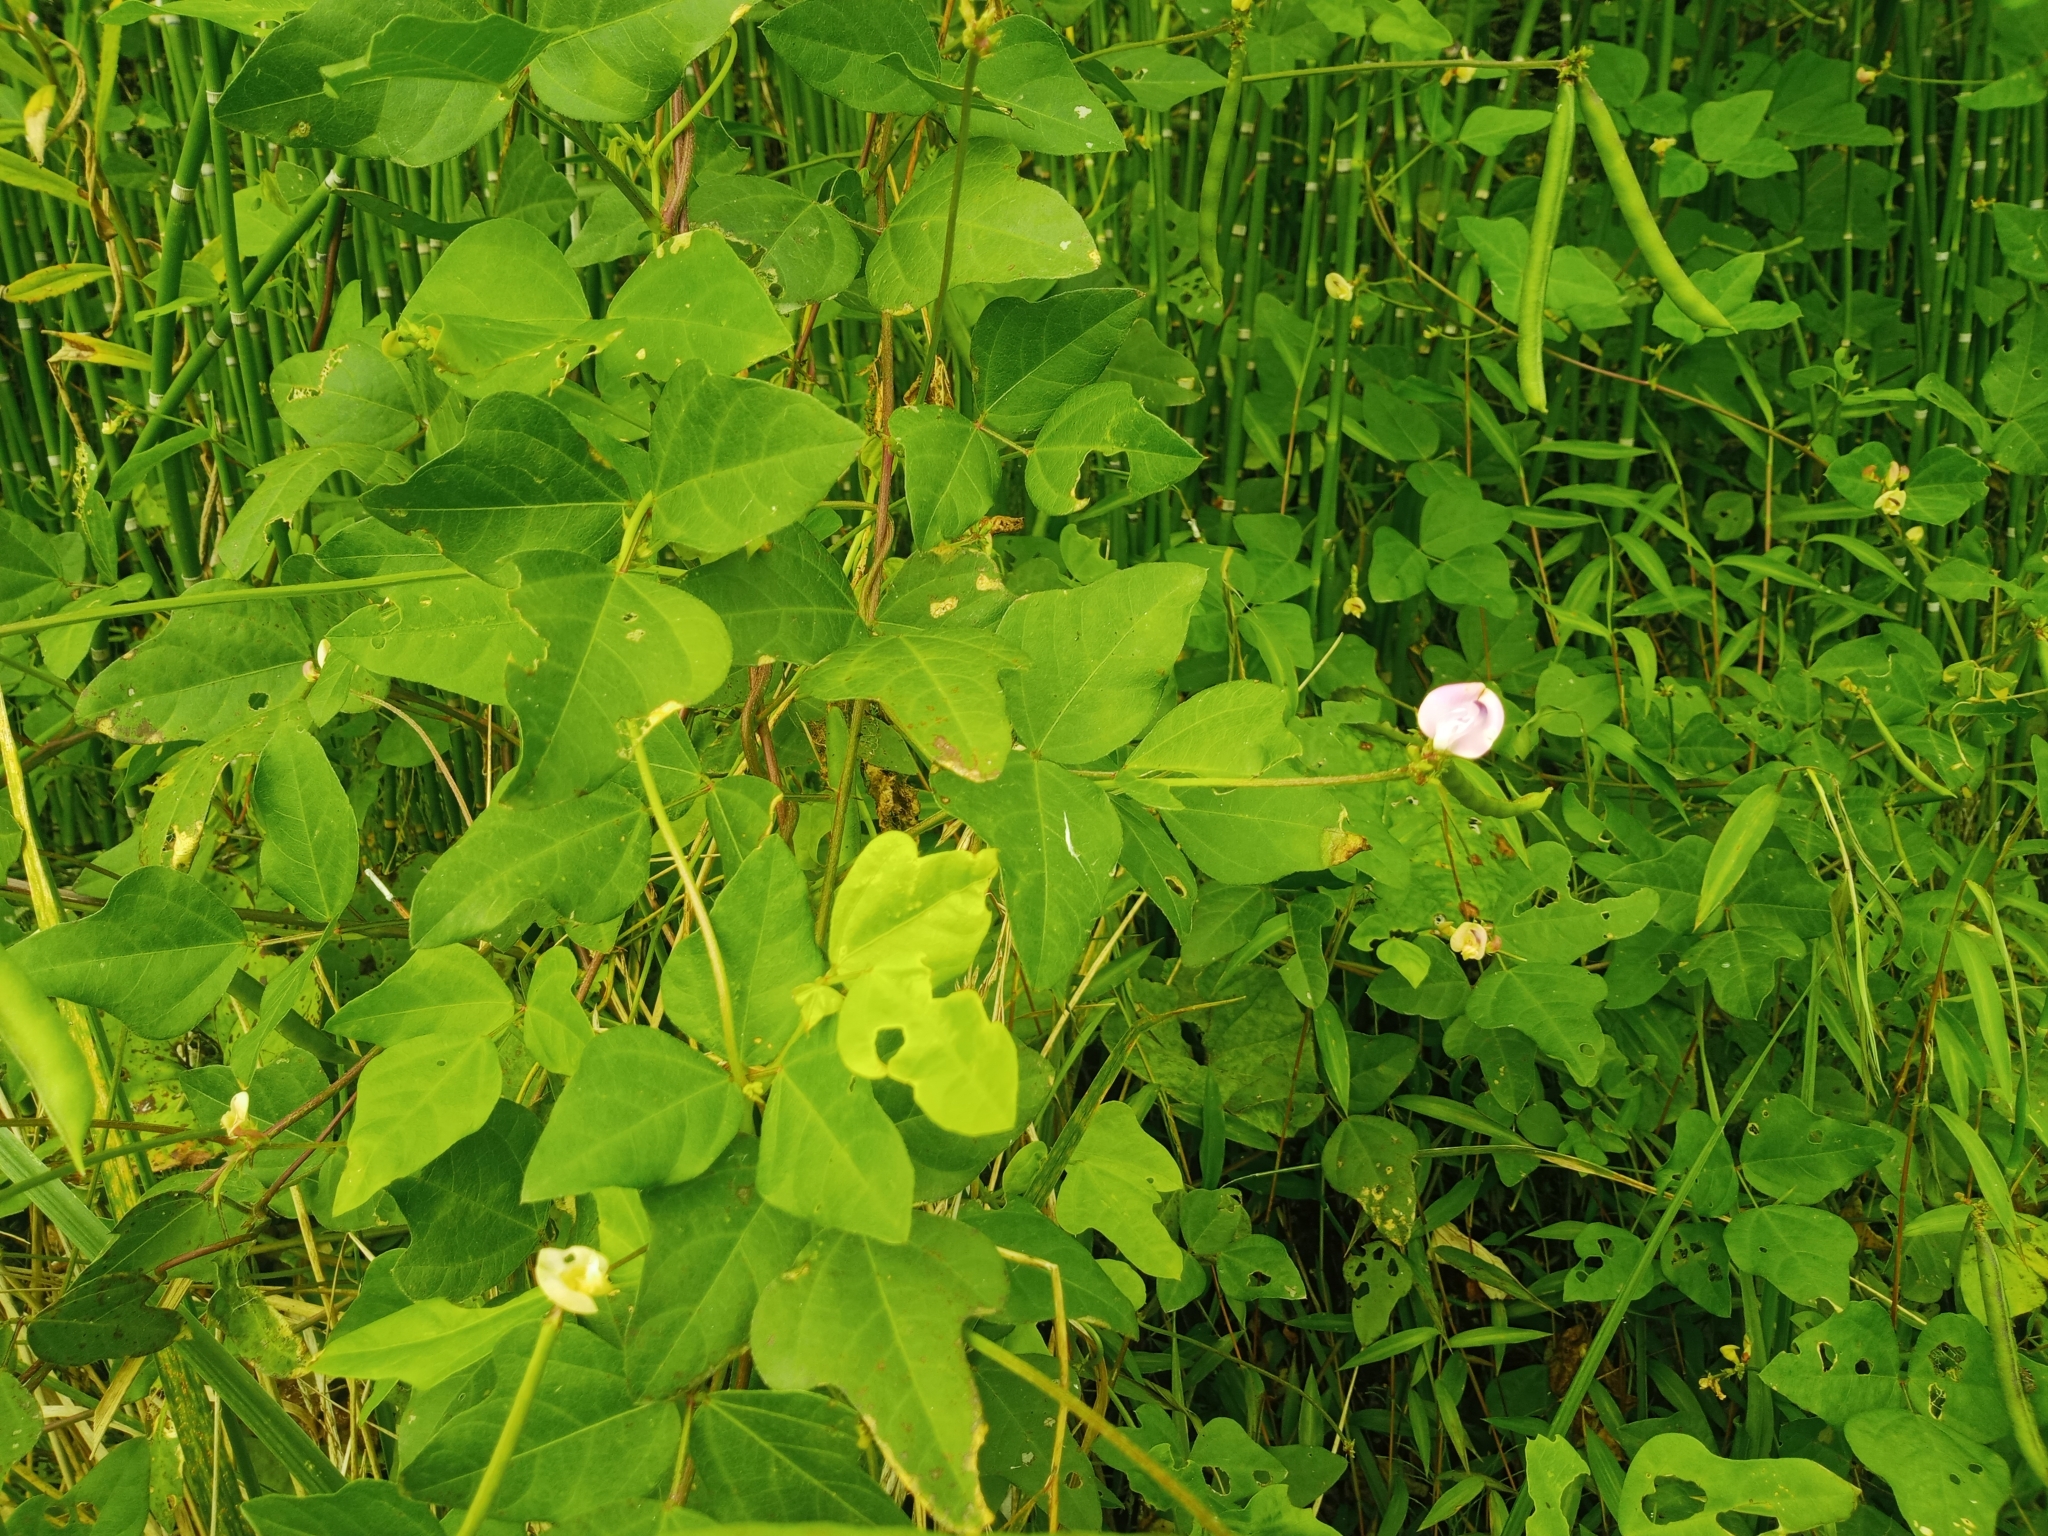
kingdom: Plantae
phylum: Tracheophyta
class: Magnoliopsida
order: Fabales
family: Fabaceae
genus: Strophostyles
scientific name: Strophostyles helvola
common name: Trailing wild bean
